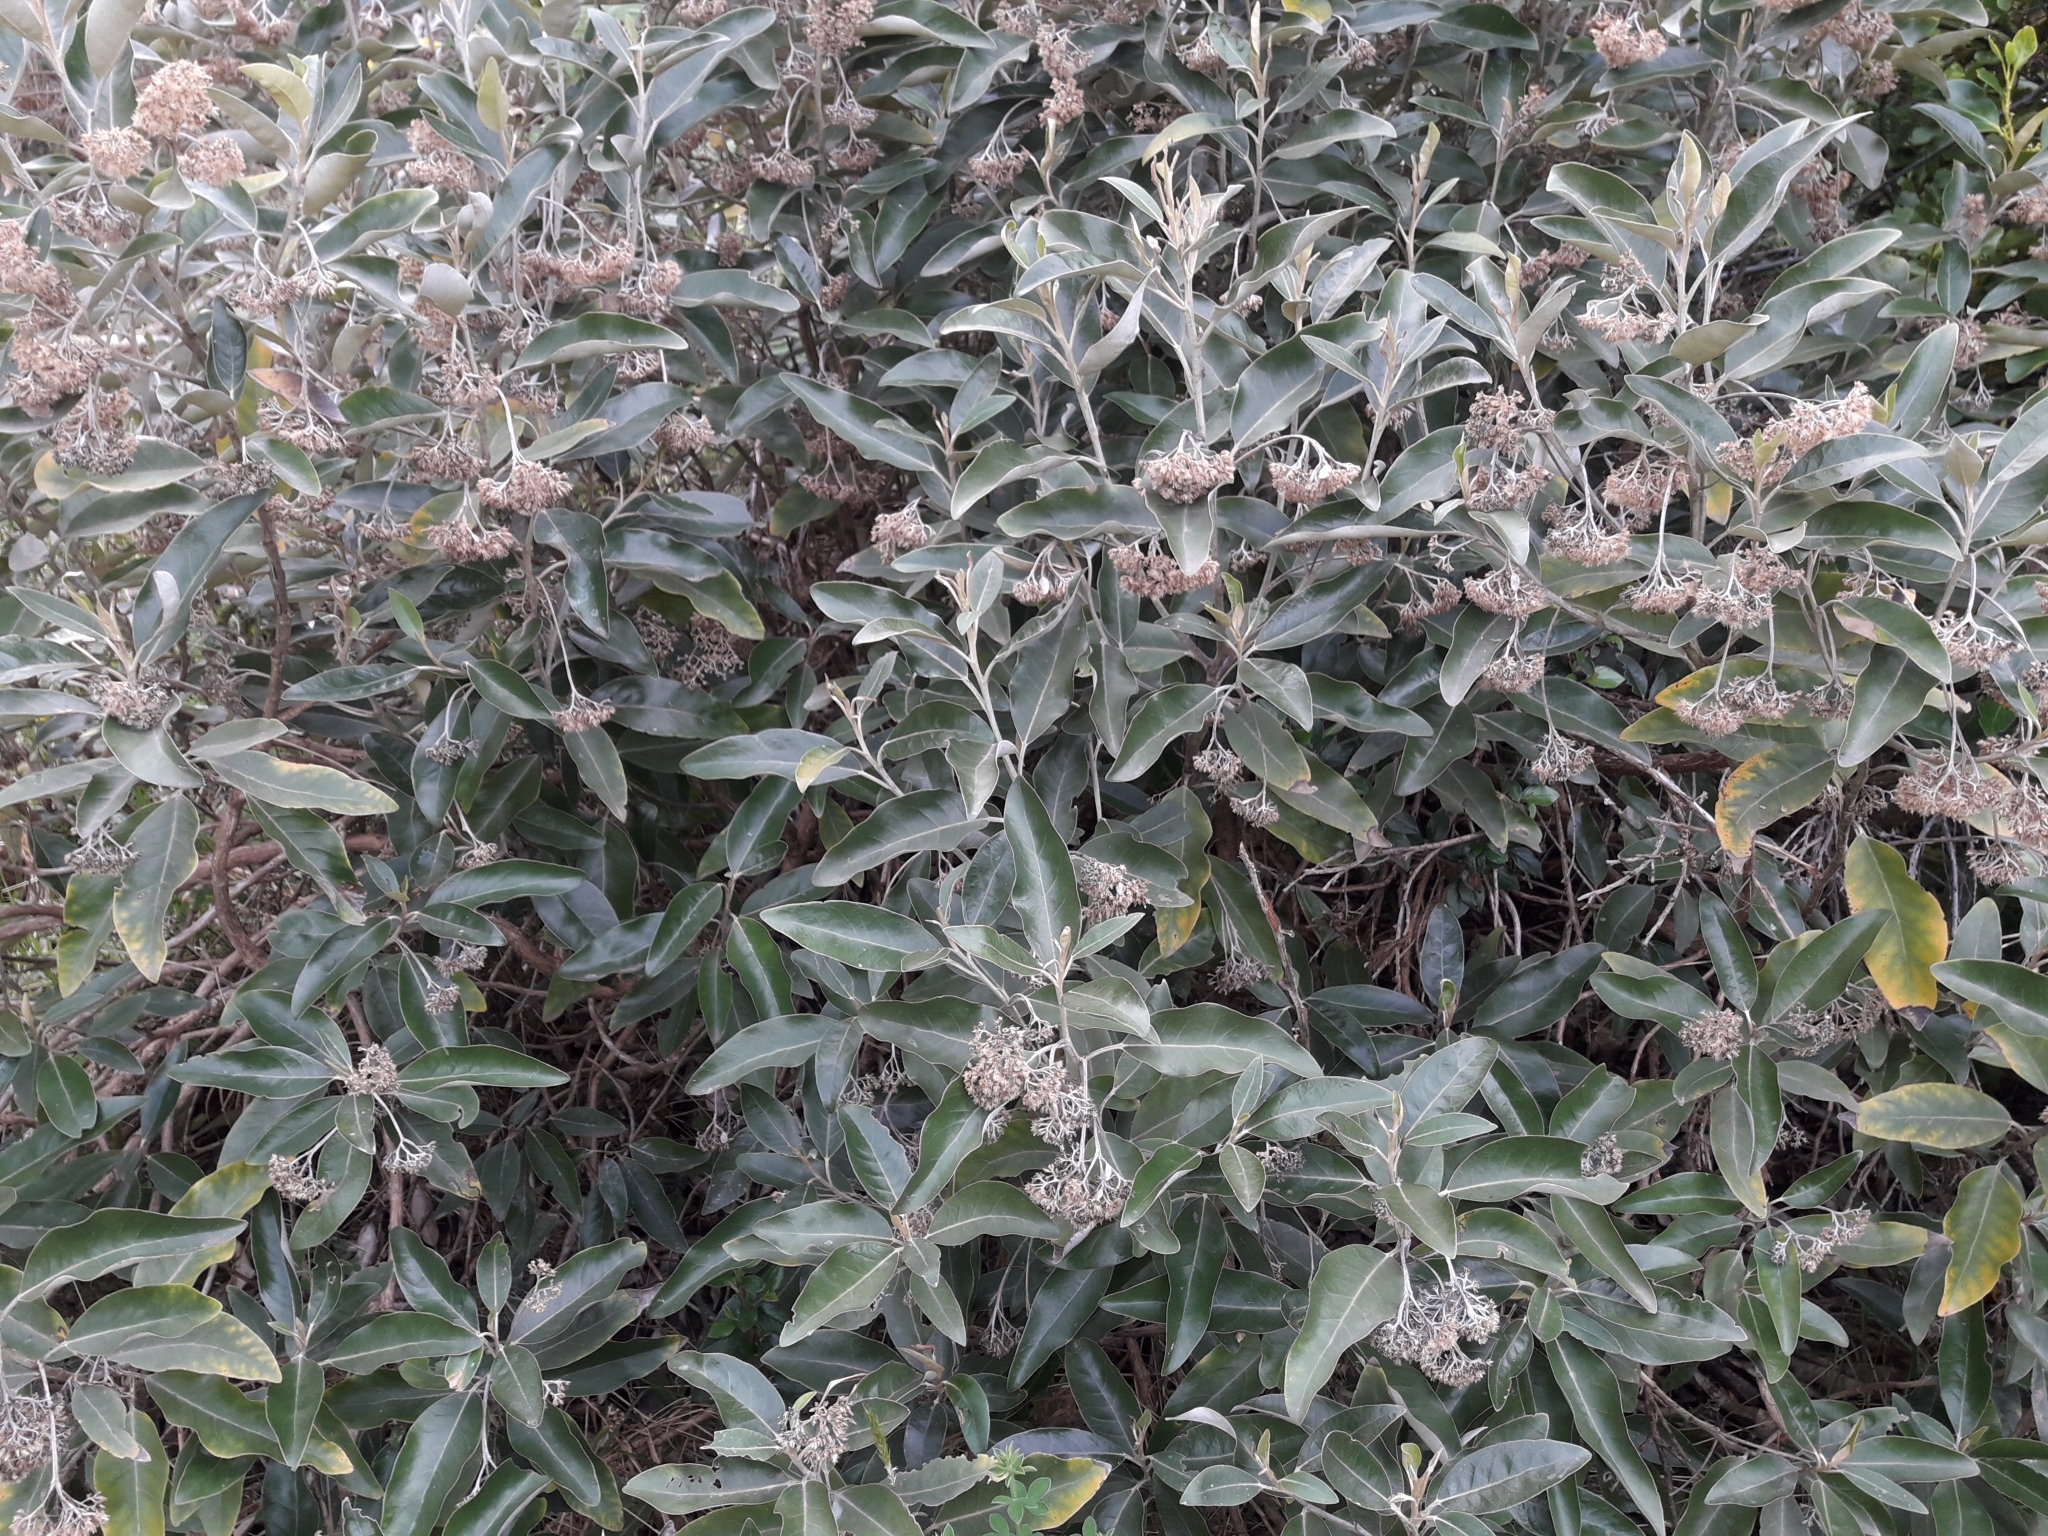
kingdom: Plantae
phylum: Tracheophyta
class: Magnoliopsida
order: Asterales
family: Asteraceae
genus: Olearia
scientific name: Olearia avicenniifolia
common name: Mangrove-leaf daisybush
